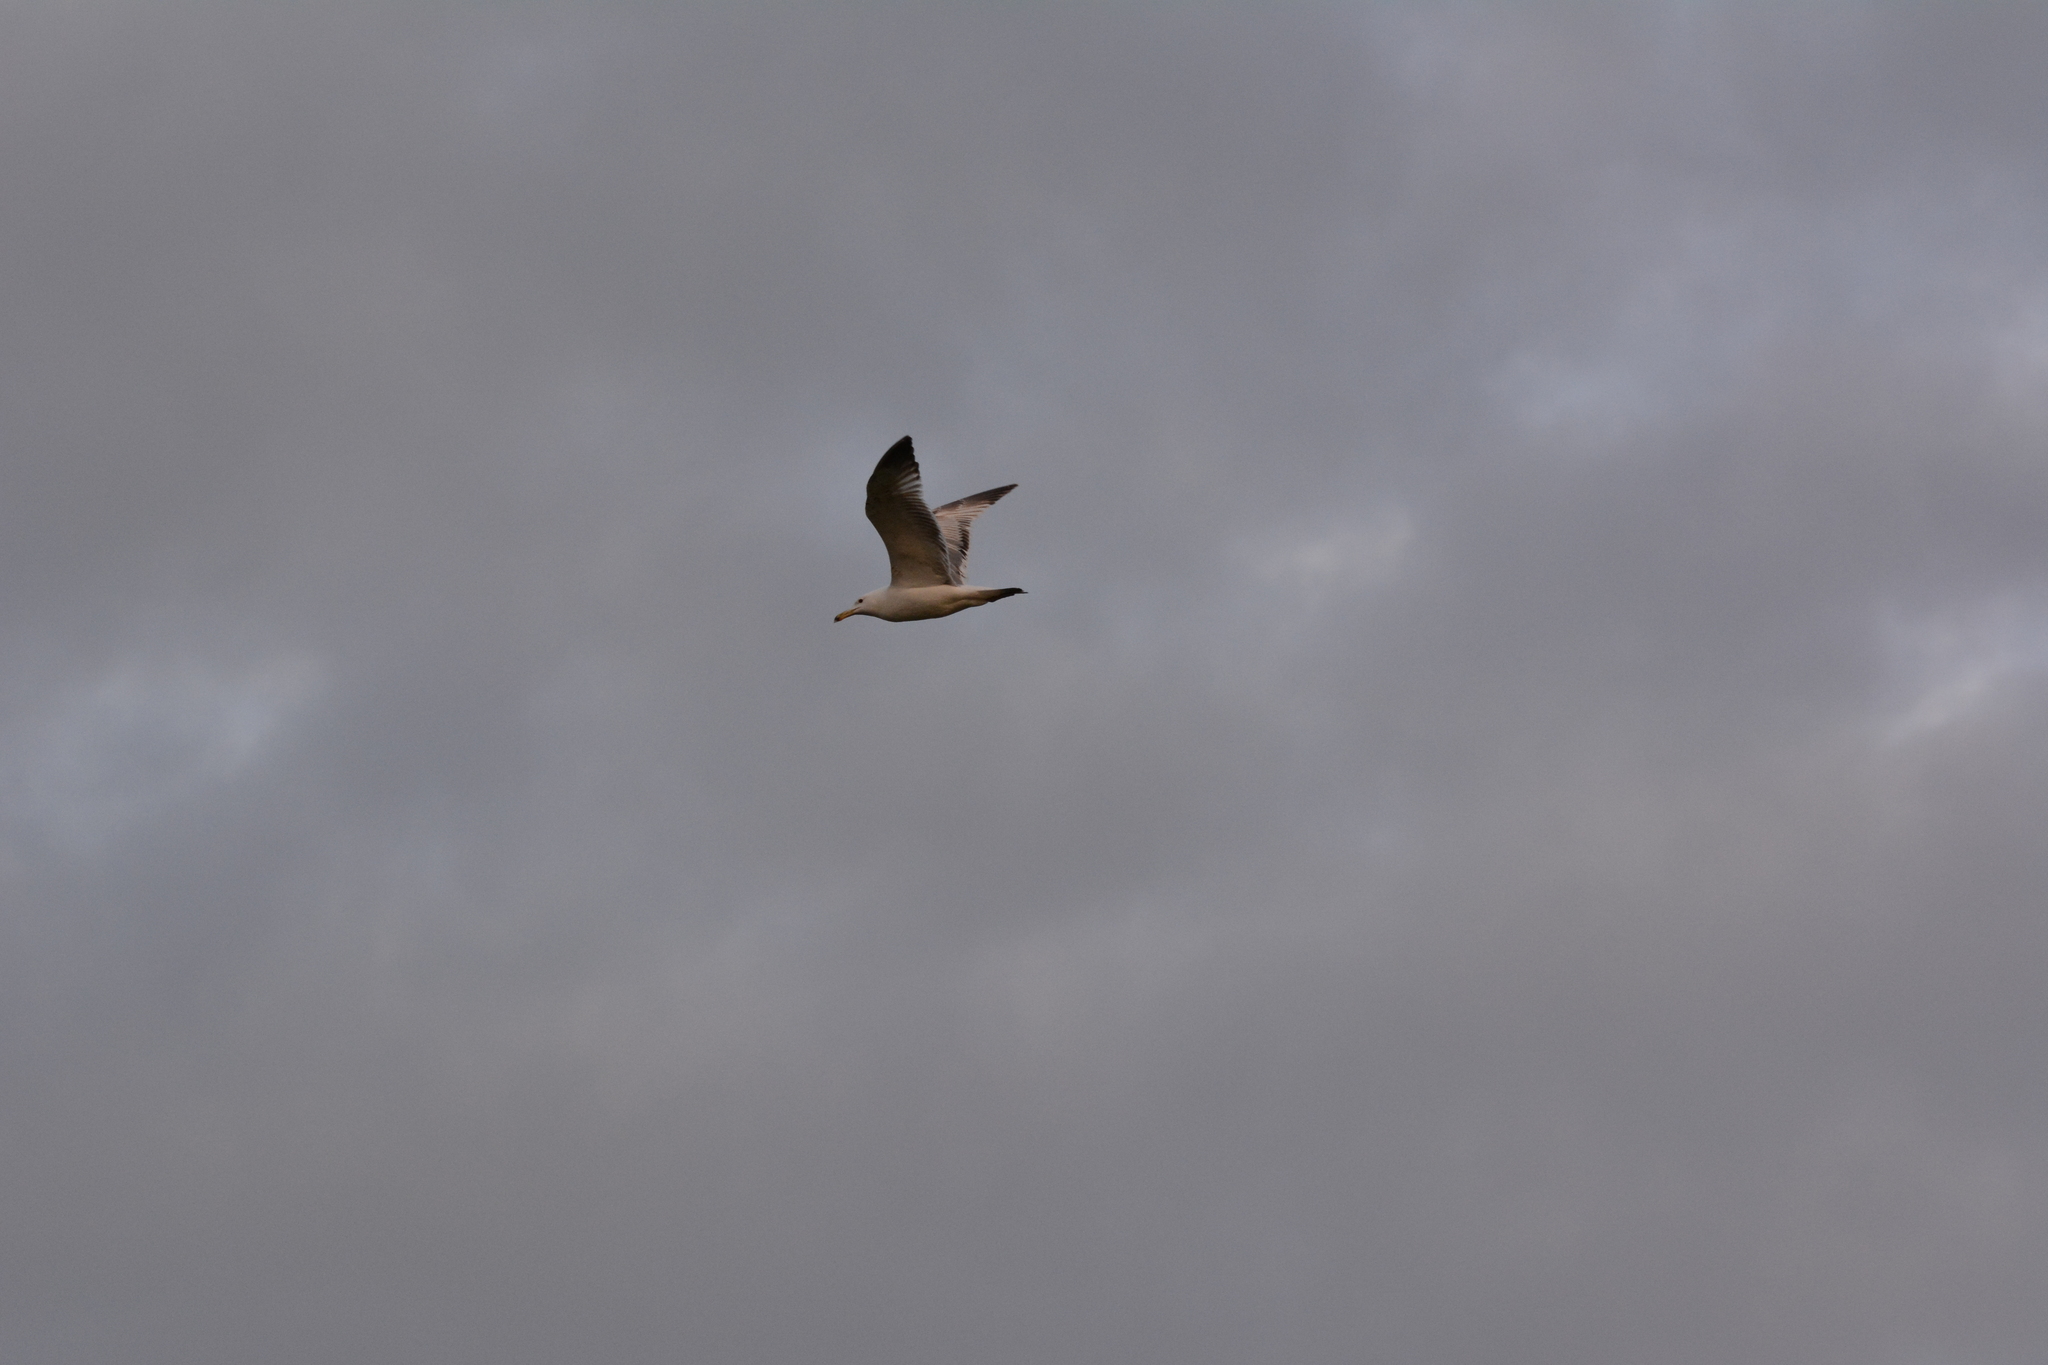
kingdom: Animalia
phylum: Chordata
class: Aves
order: Charadriiformes
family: Laridae
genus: Larus
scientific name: Larus cachinnans
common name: Caspian gull
